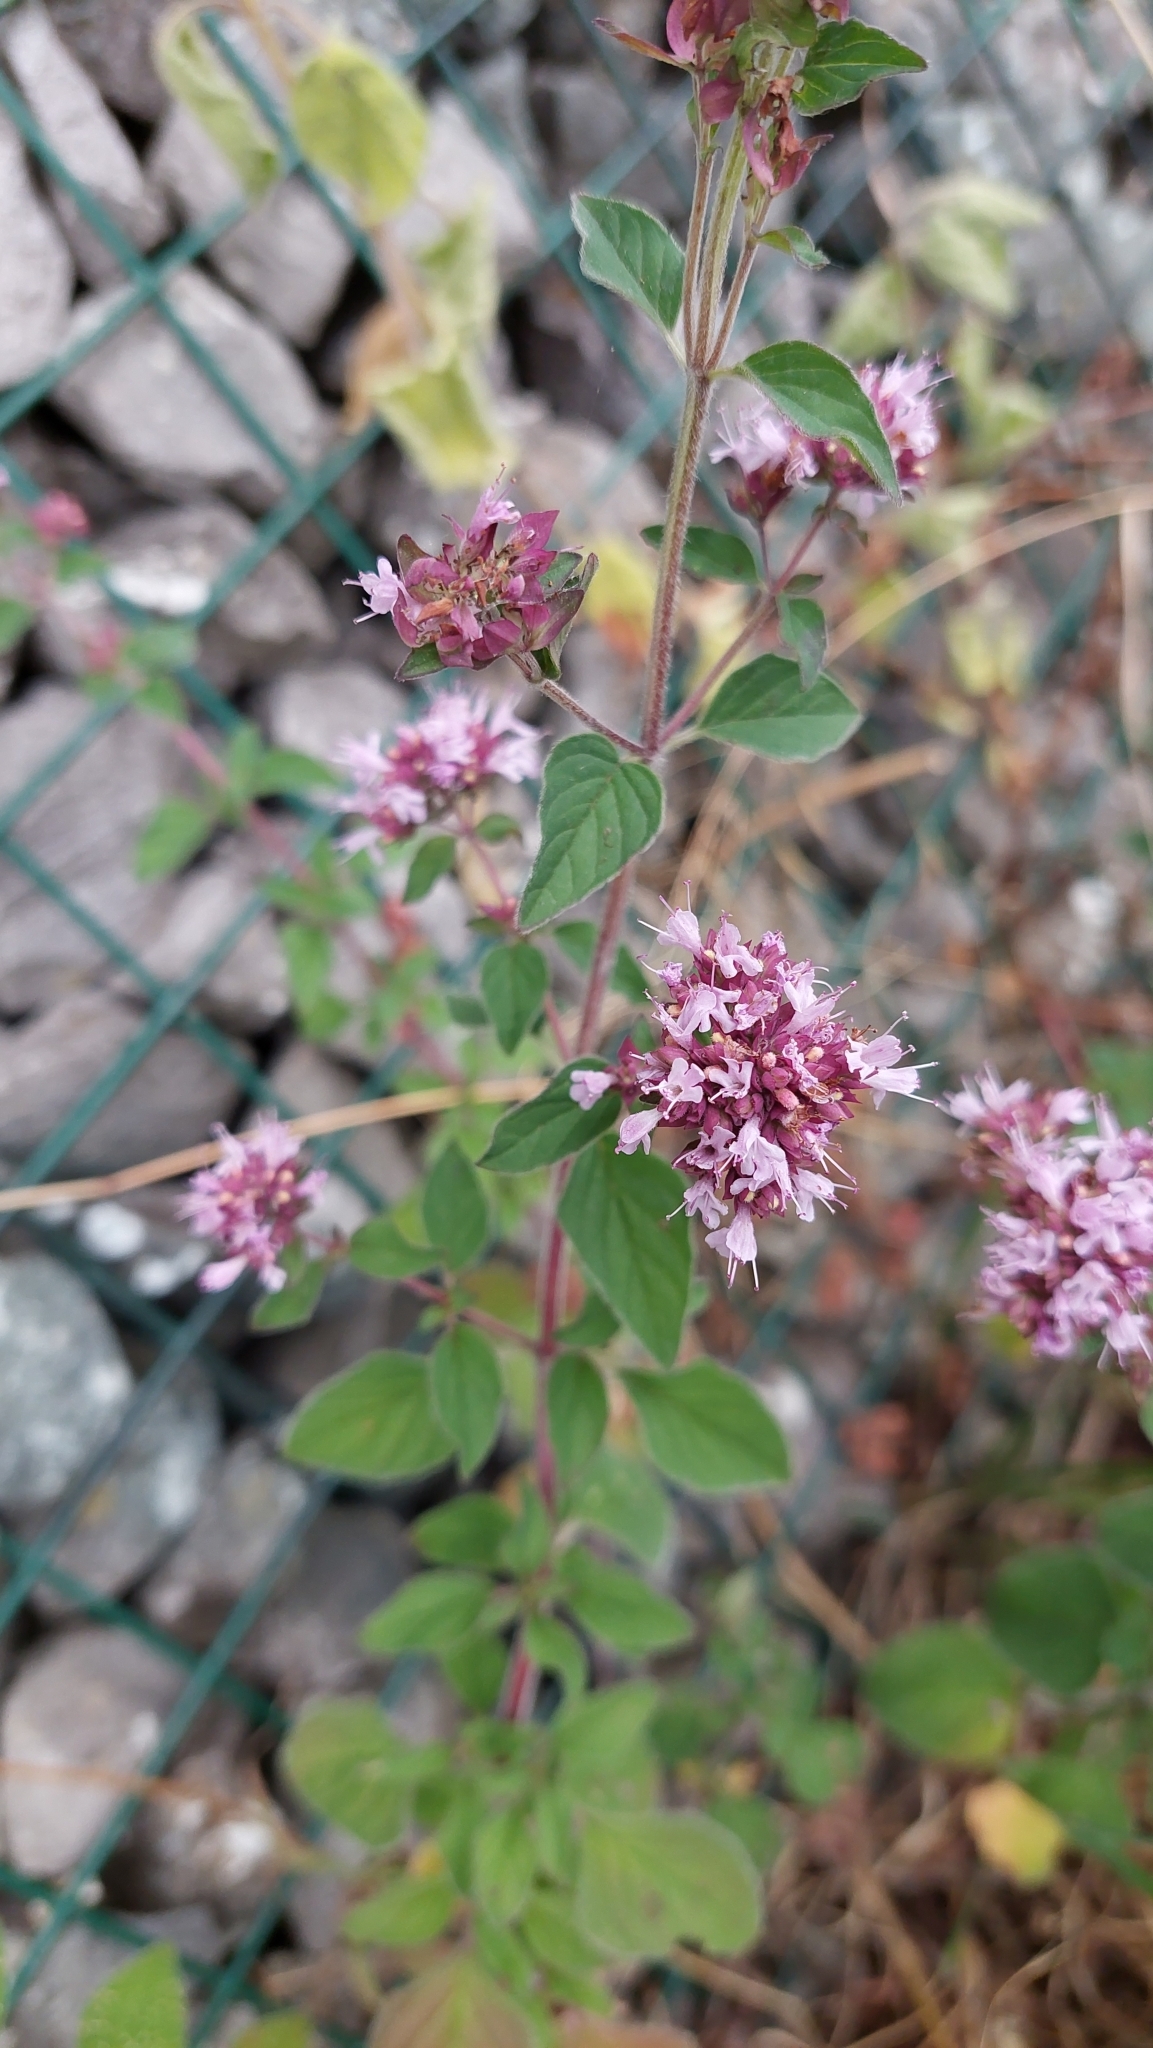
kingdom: Plantae
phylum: Tracheophyta
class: Magnoliopsida
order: Lamiales
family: Lamiaceae
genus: Origanum
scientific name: Origanum vulgare
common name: Wild marjoram
